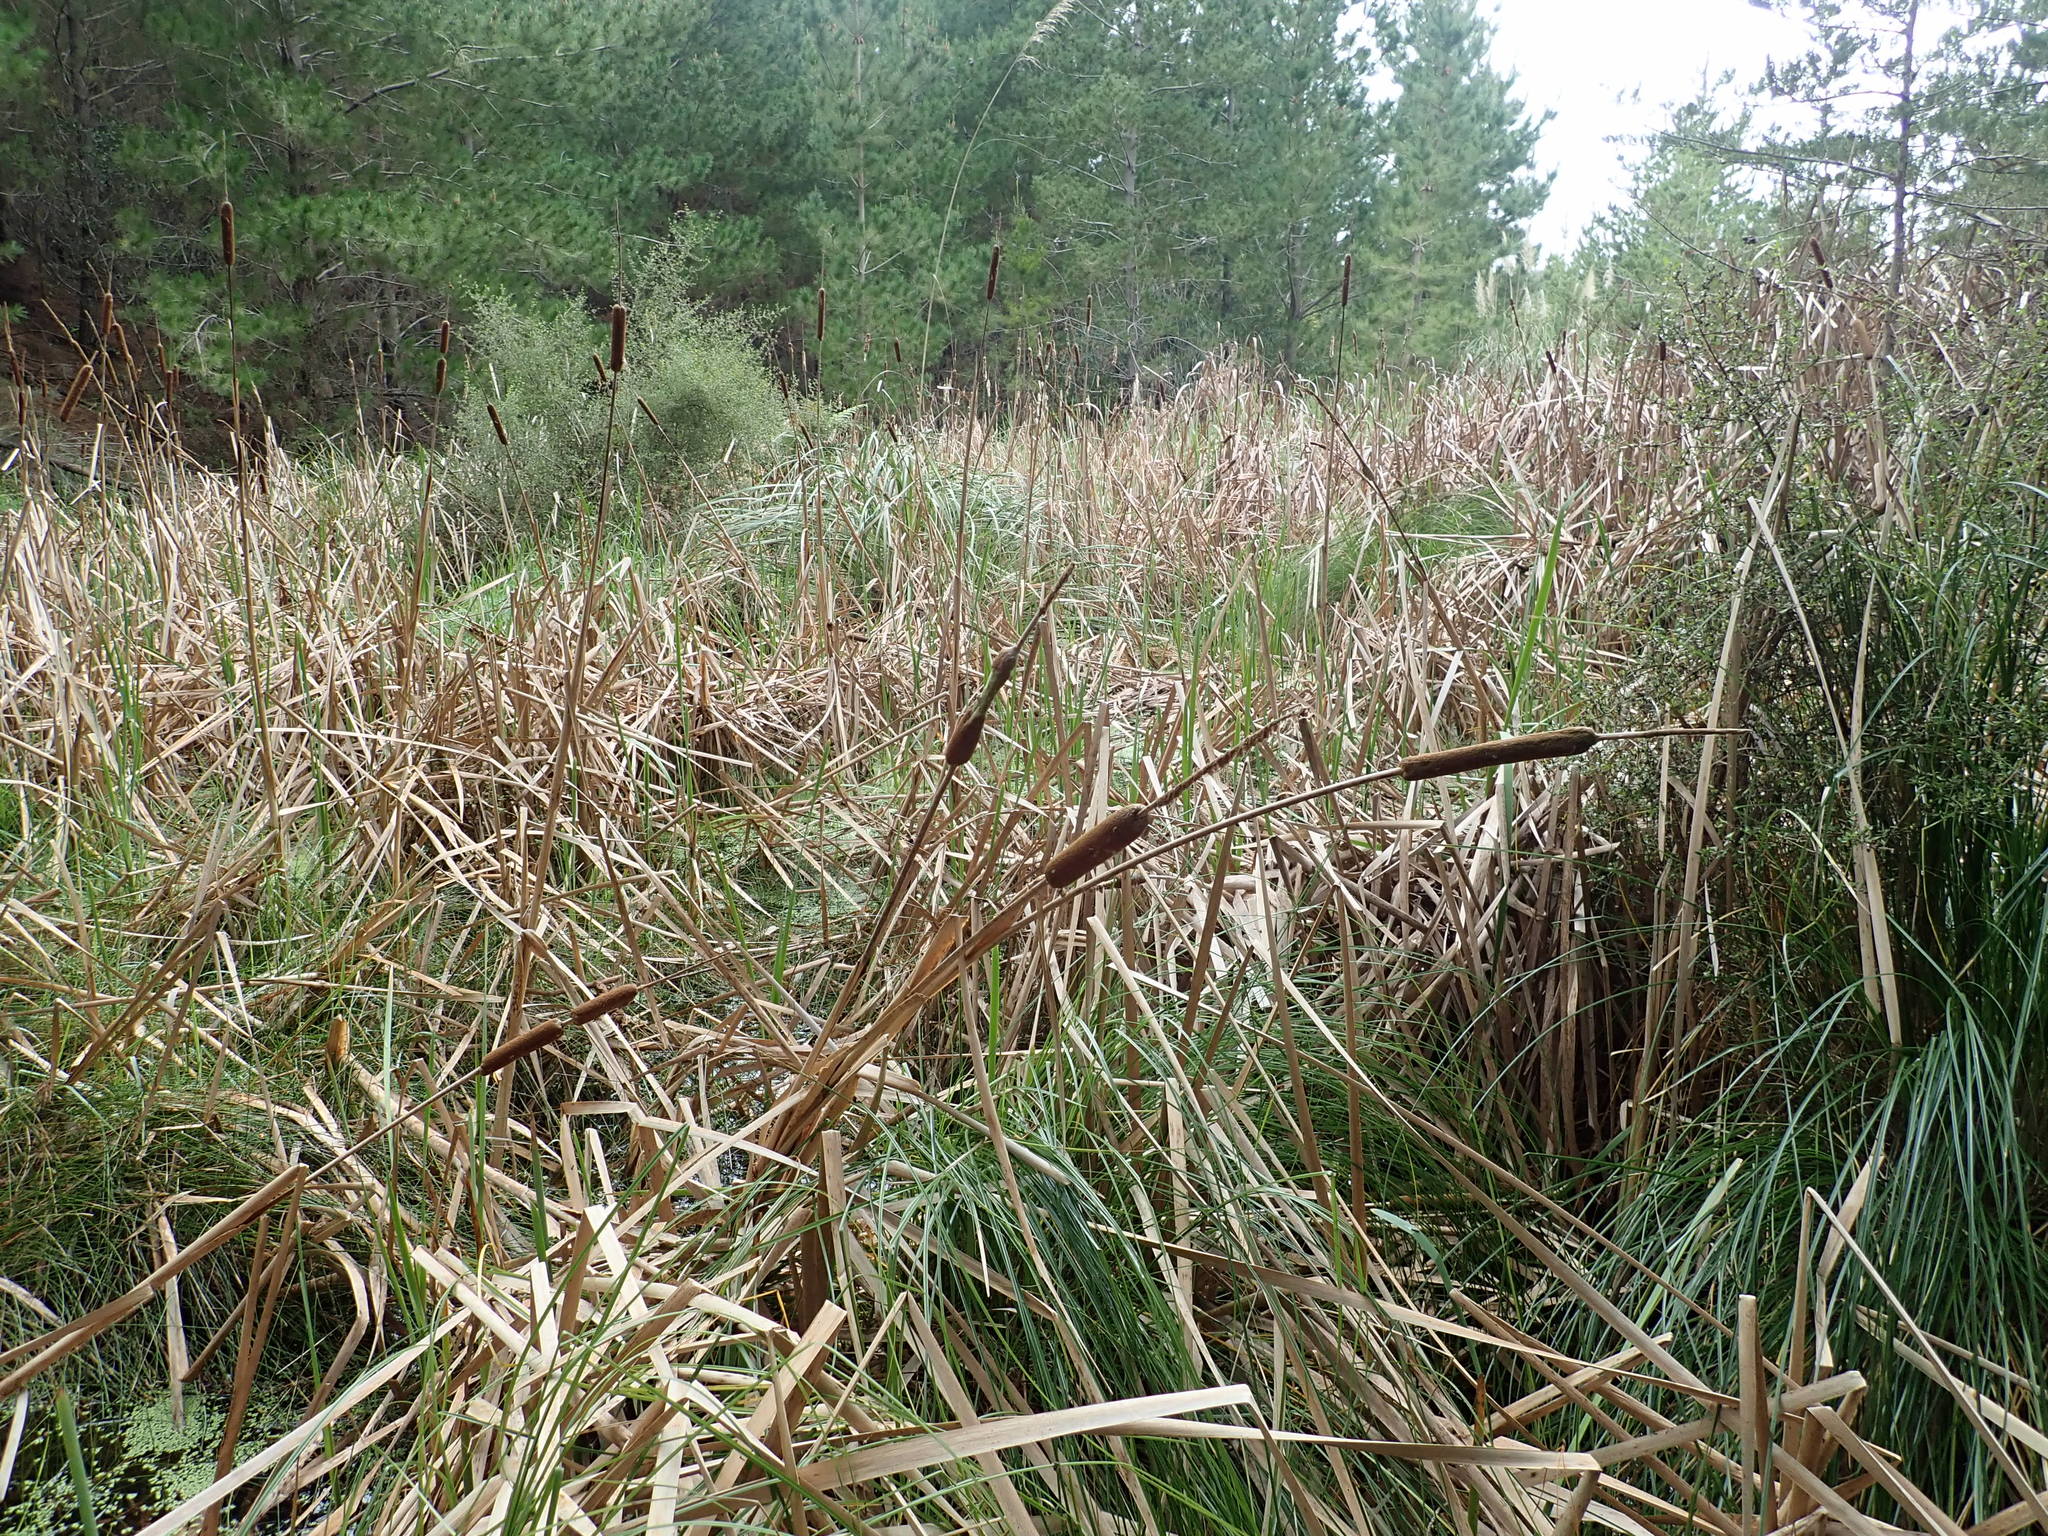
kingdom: Plantae
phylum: Tracheophyta
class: Liliopsida
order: Poales
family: Typhaceae
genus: Typha
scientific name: Typha orientalis
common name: Bullrush
